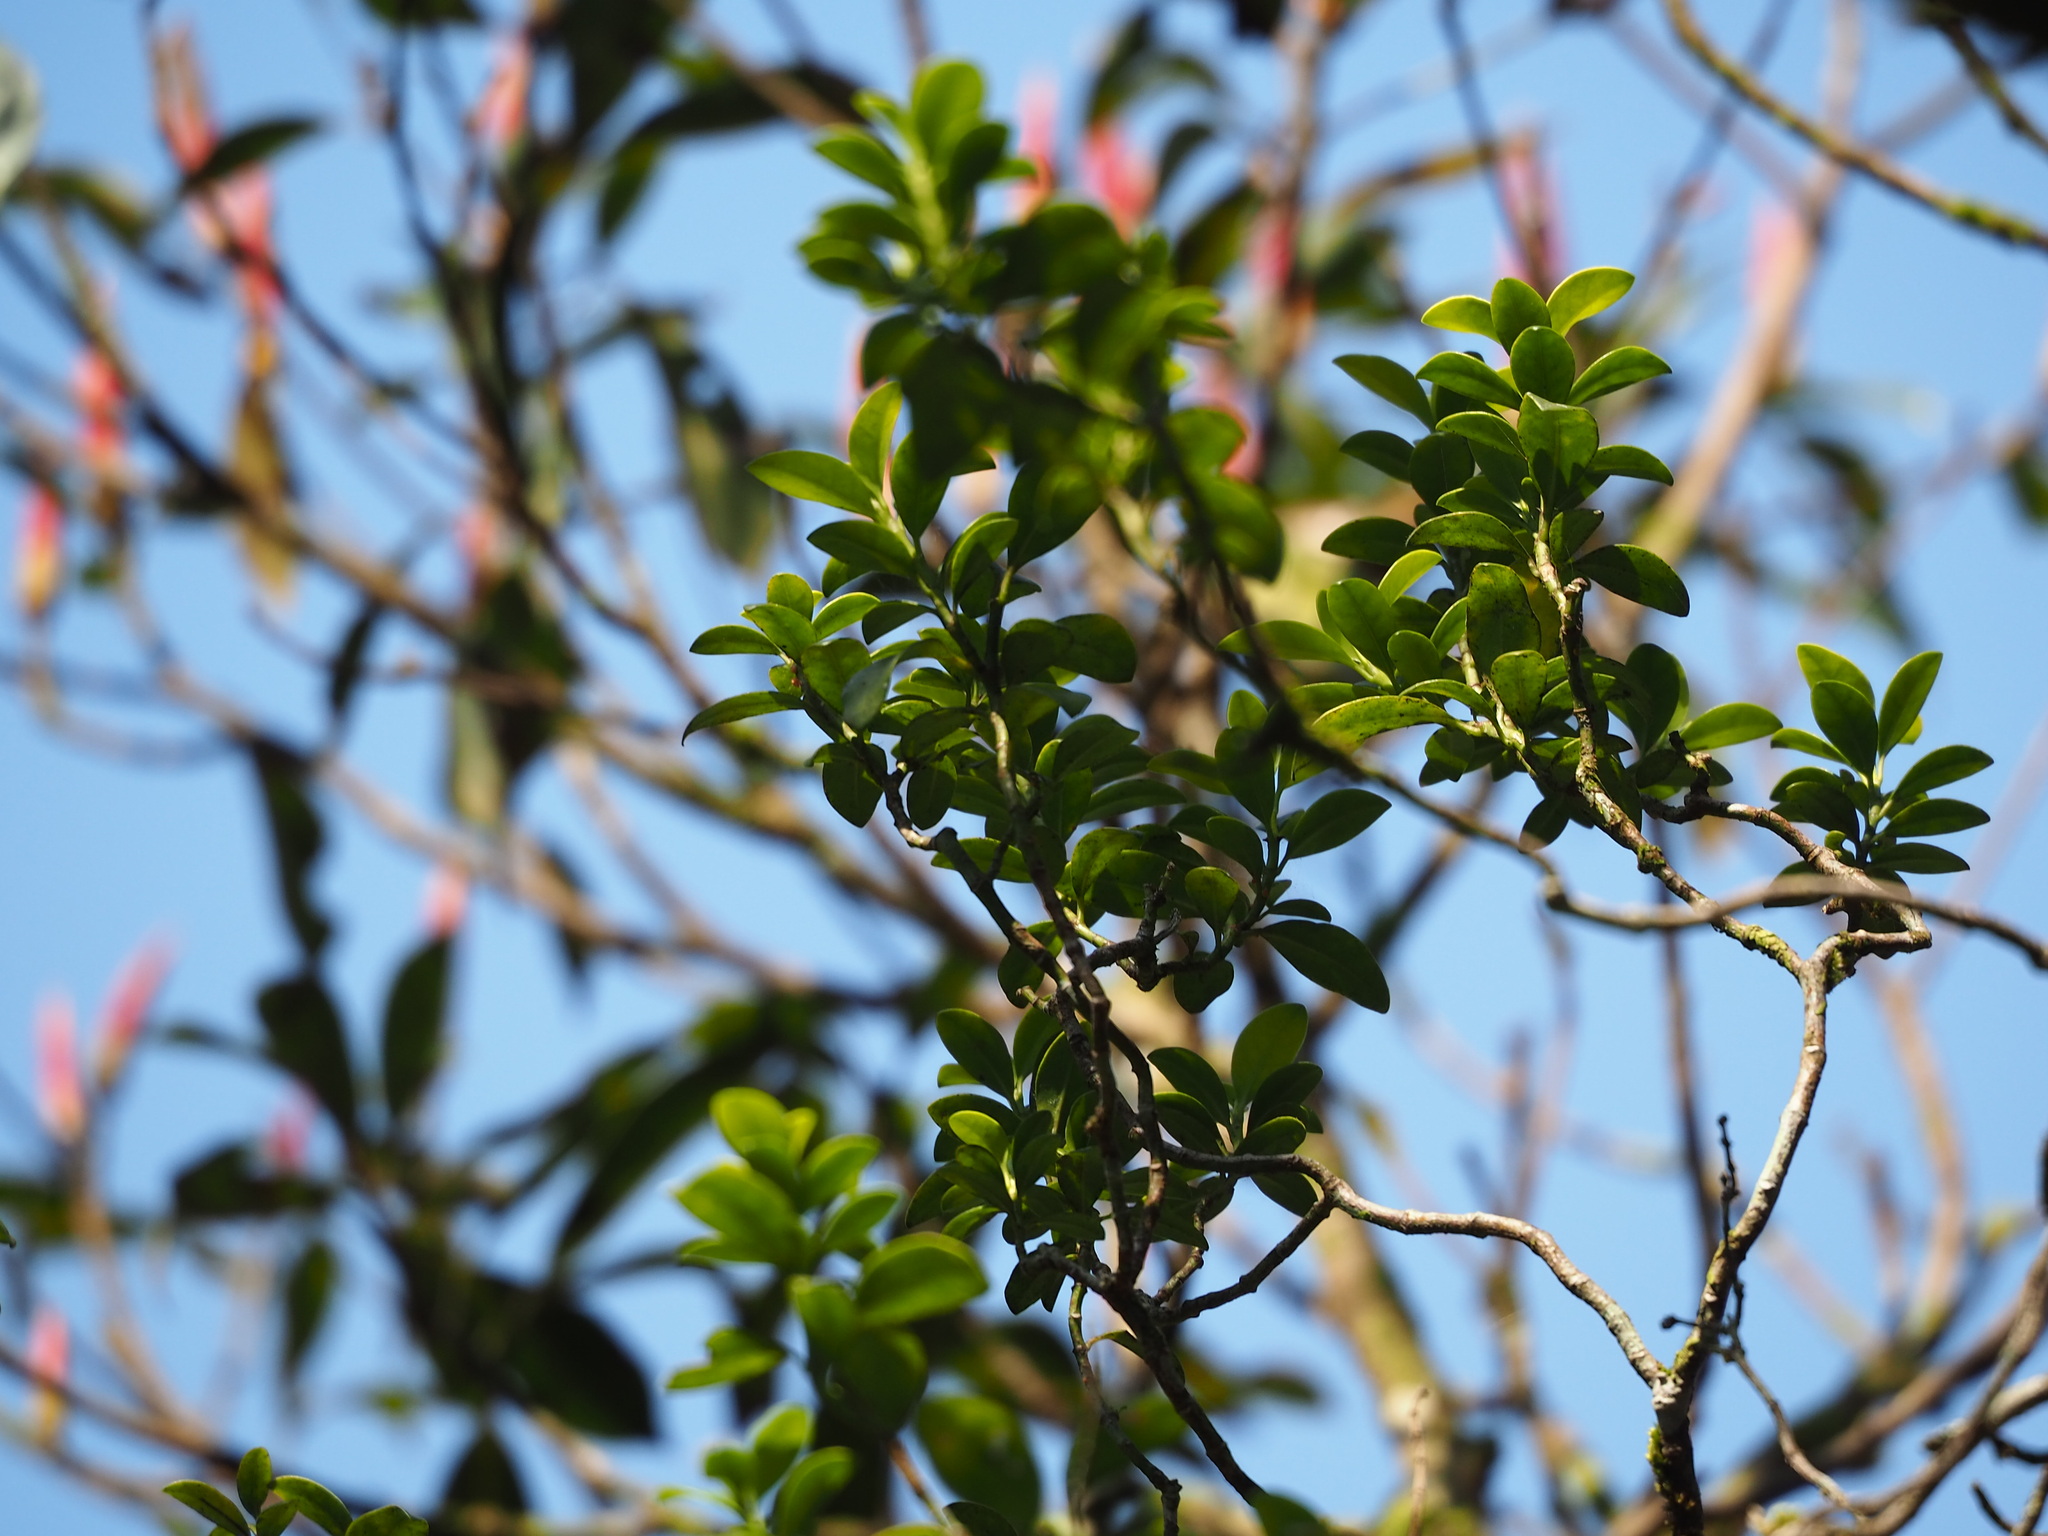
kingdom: Plantae
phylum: Tracheophyta
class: Magnoliopsida
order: Gentianales
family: Rubiaceae
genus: Psychotria
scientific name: Psychotria serpens
